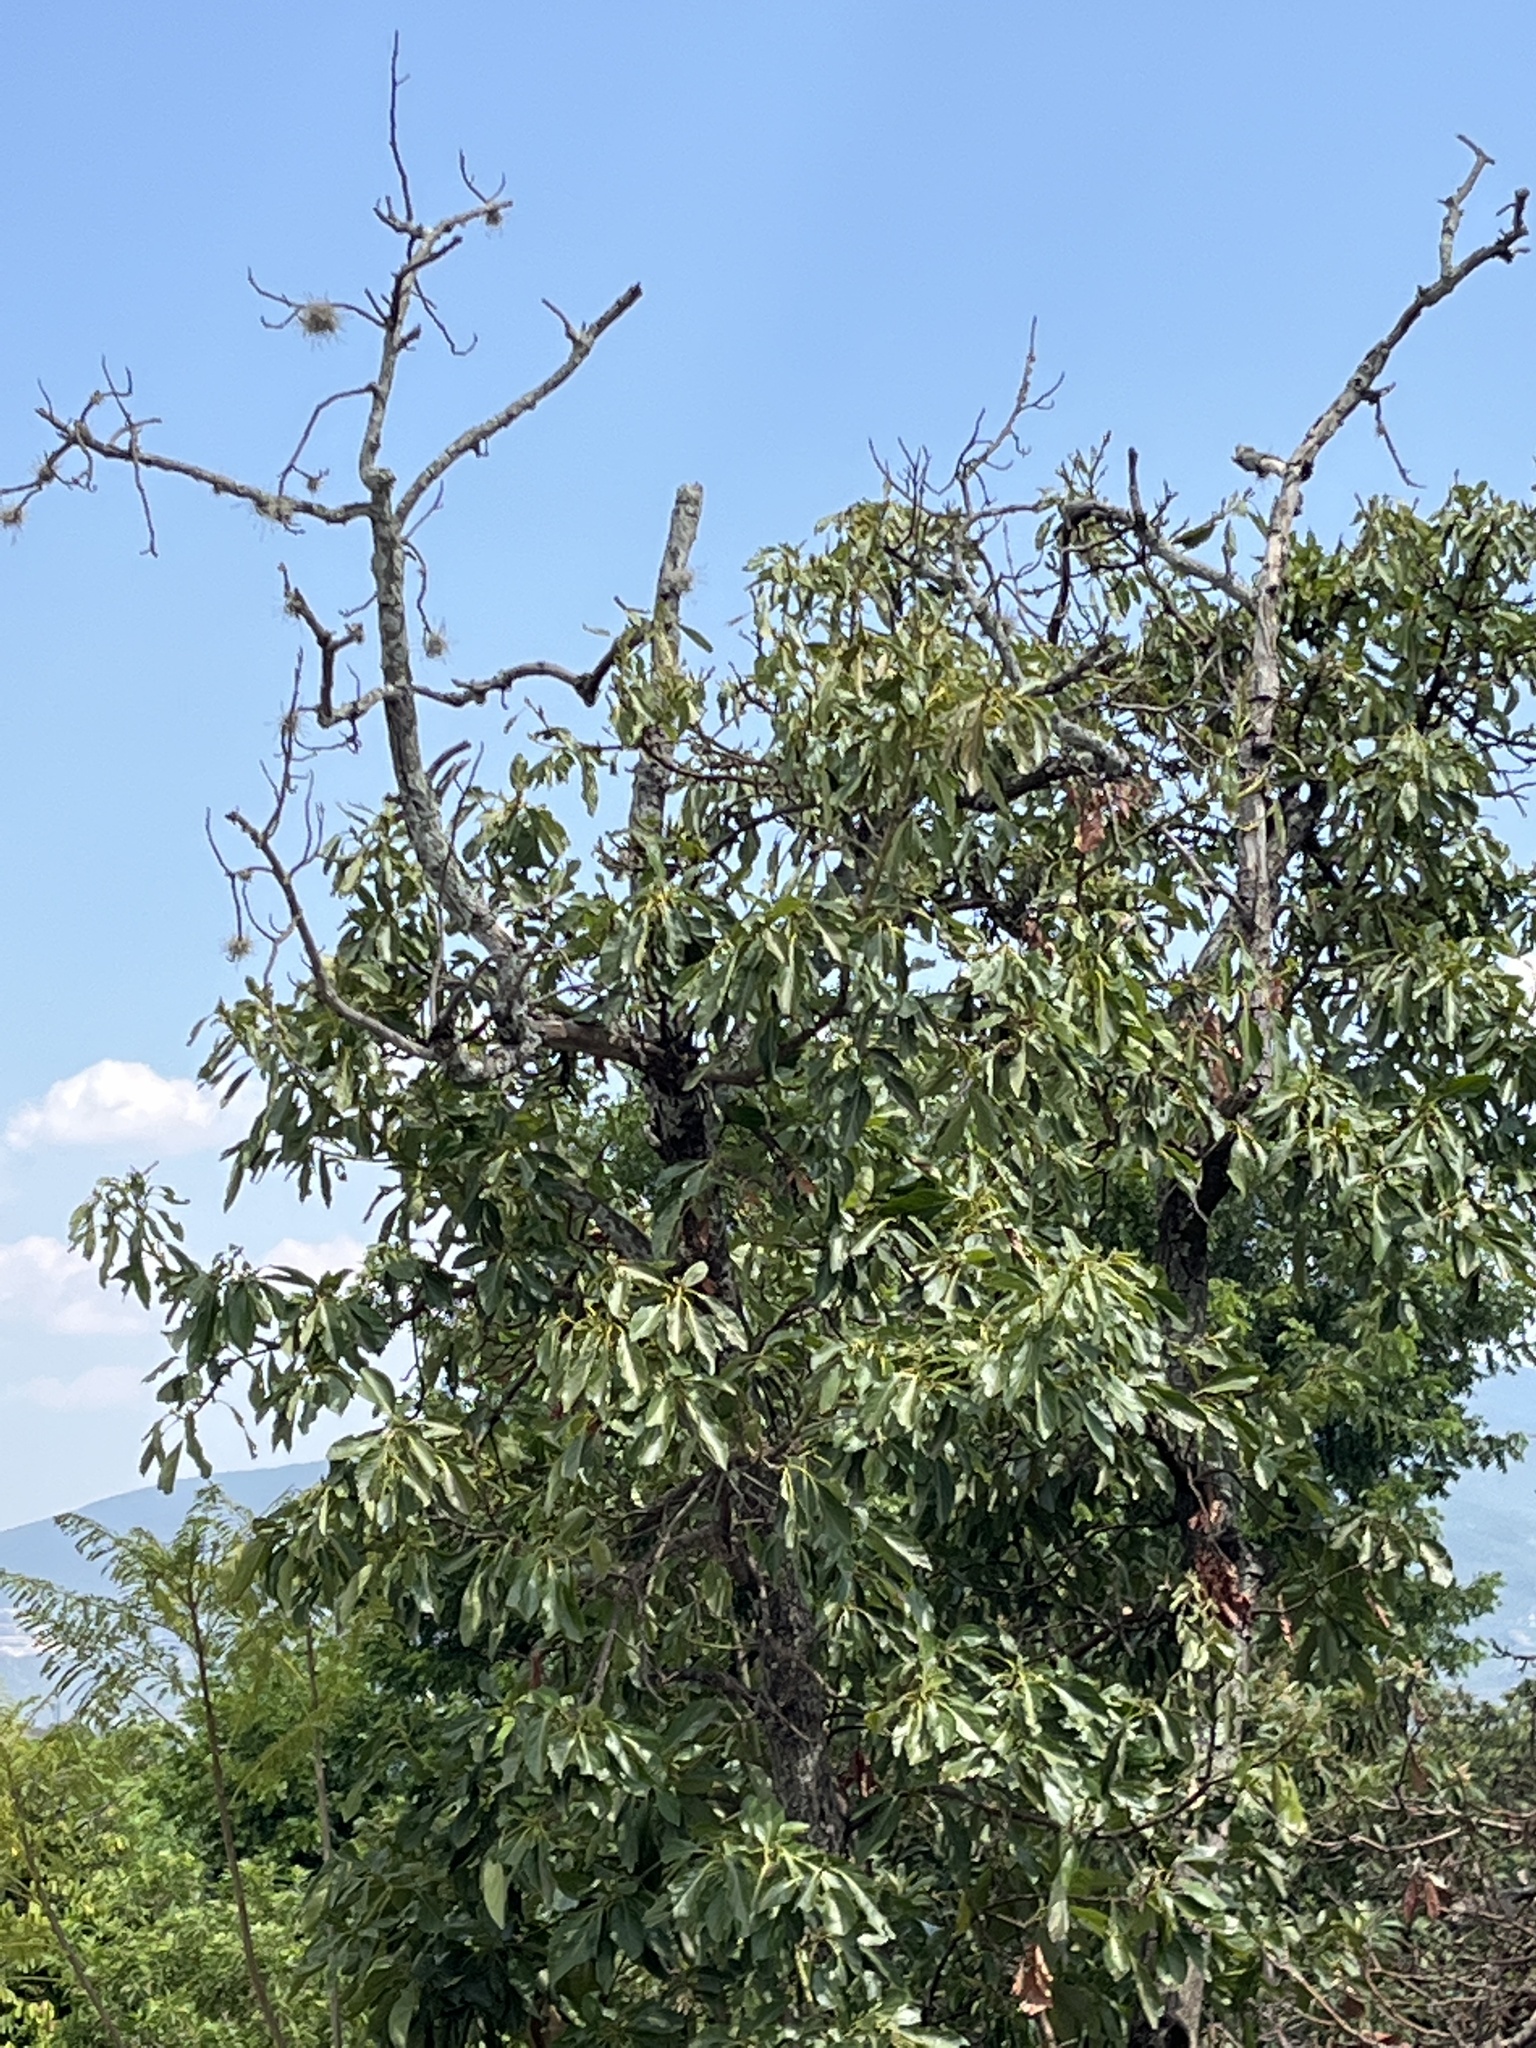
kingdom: Plantae
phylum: Tracheophyta
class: Magnoliopsida
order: Laurales
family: Lauraceae
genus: Persea
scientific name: Persea americana
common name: Avocado
